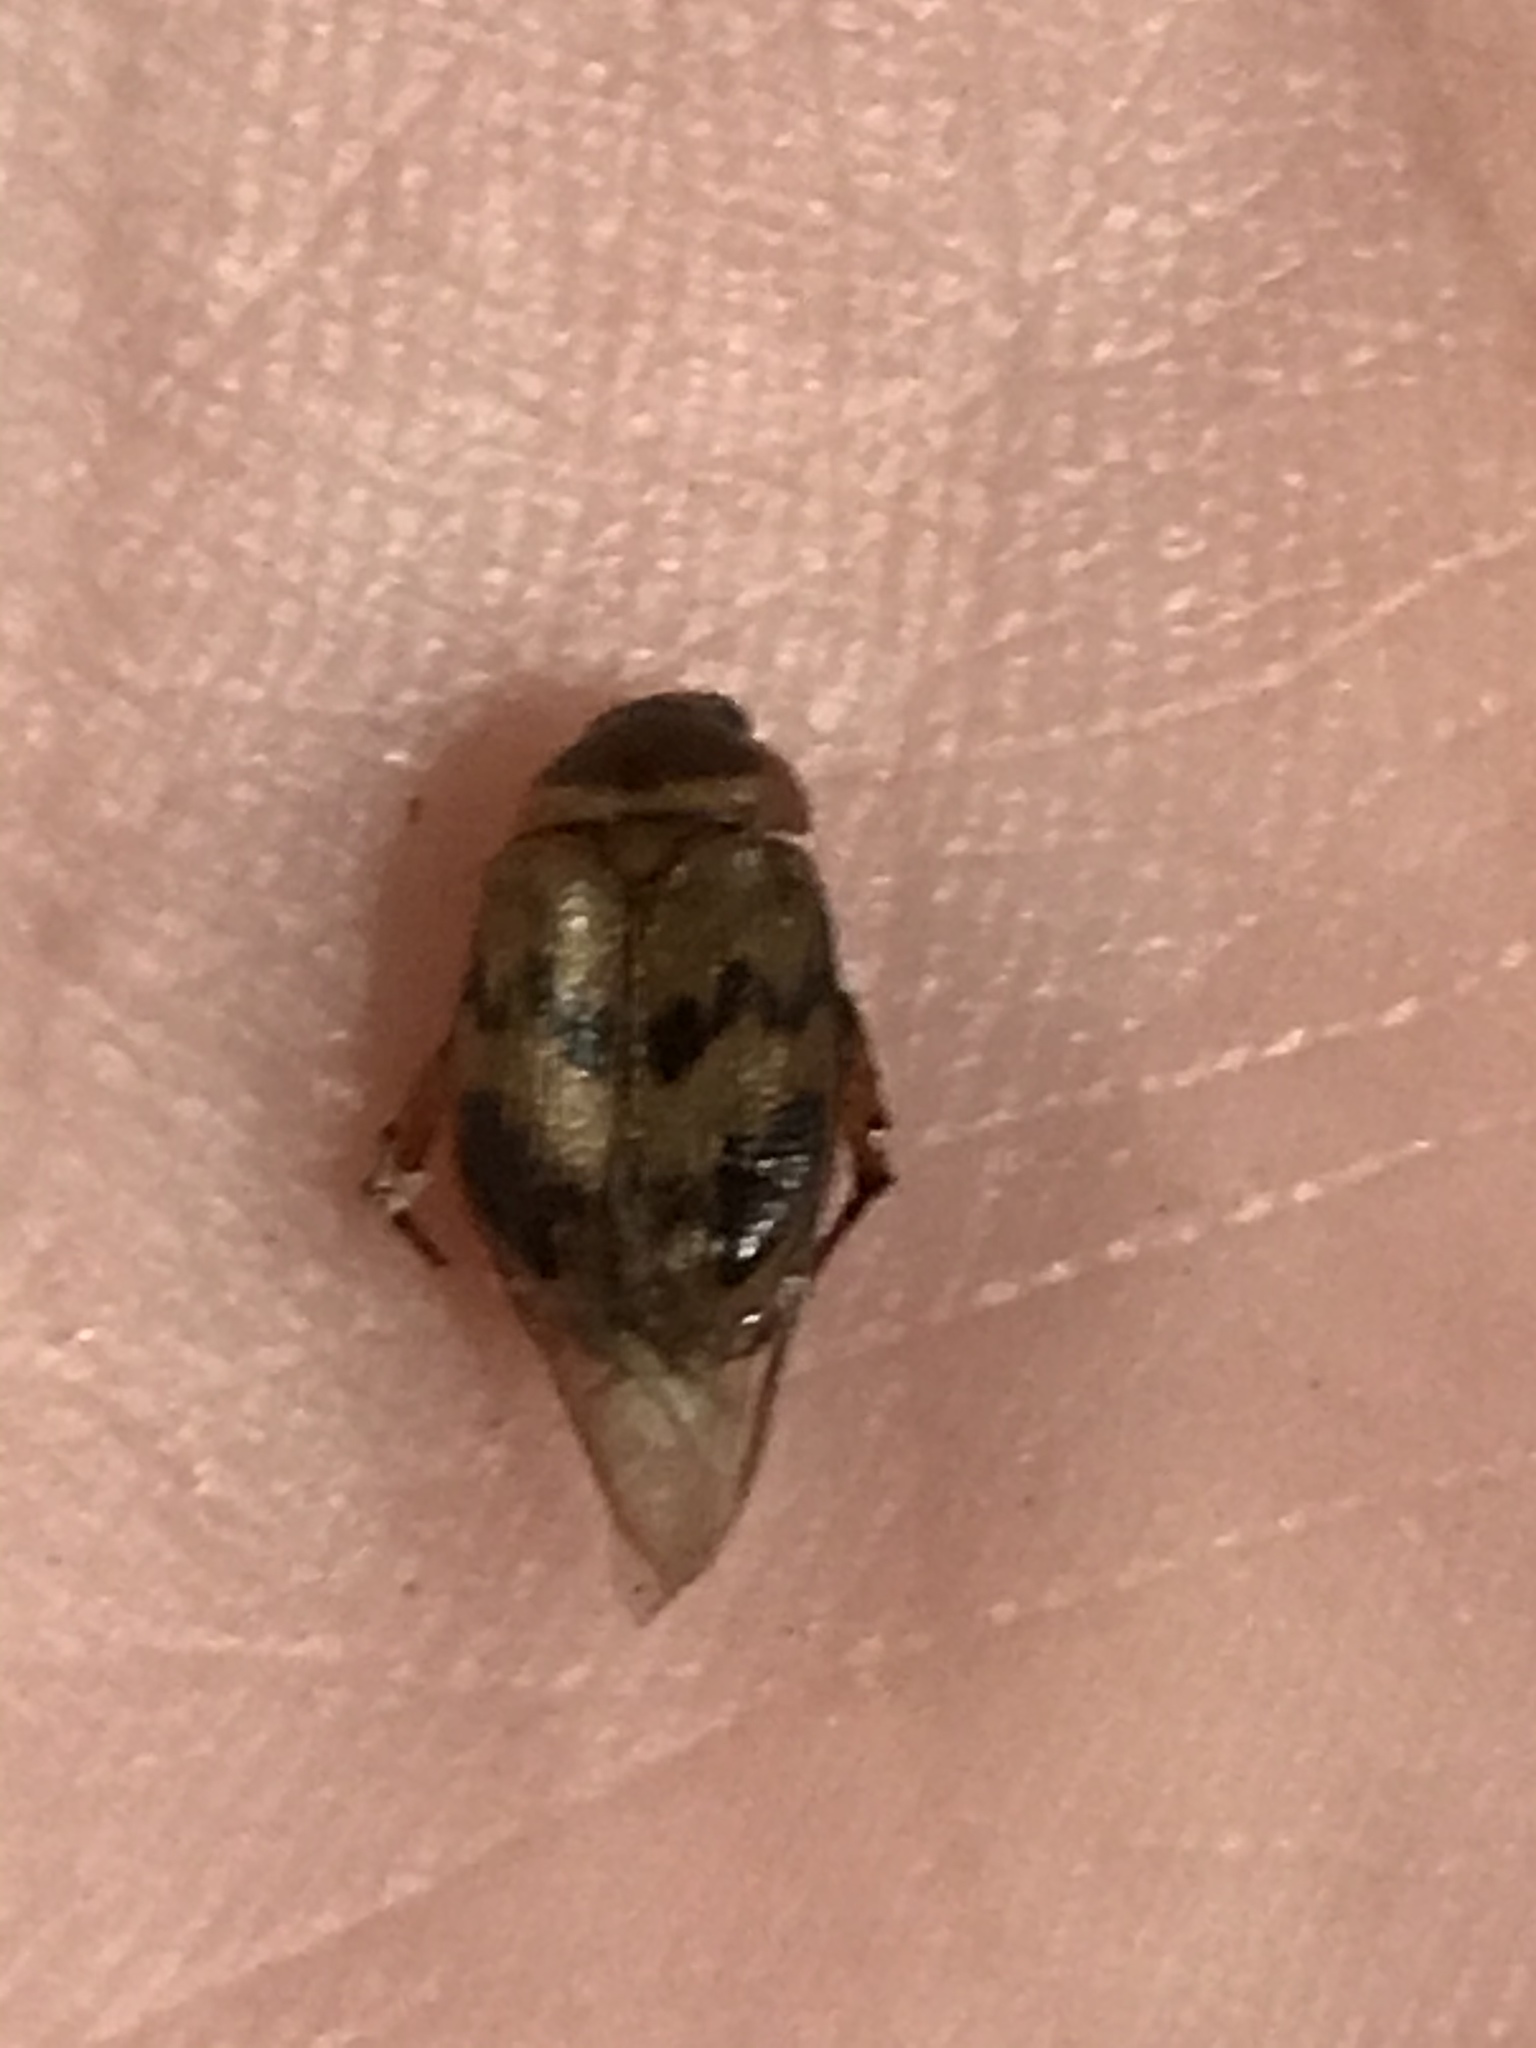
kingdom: Animalia
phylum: Arthropoda
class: Insecta
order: Coleoptera
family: Scarabaeidae
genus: Anomala
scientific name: Anomala innuba
